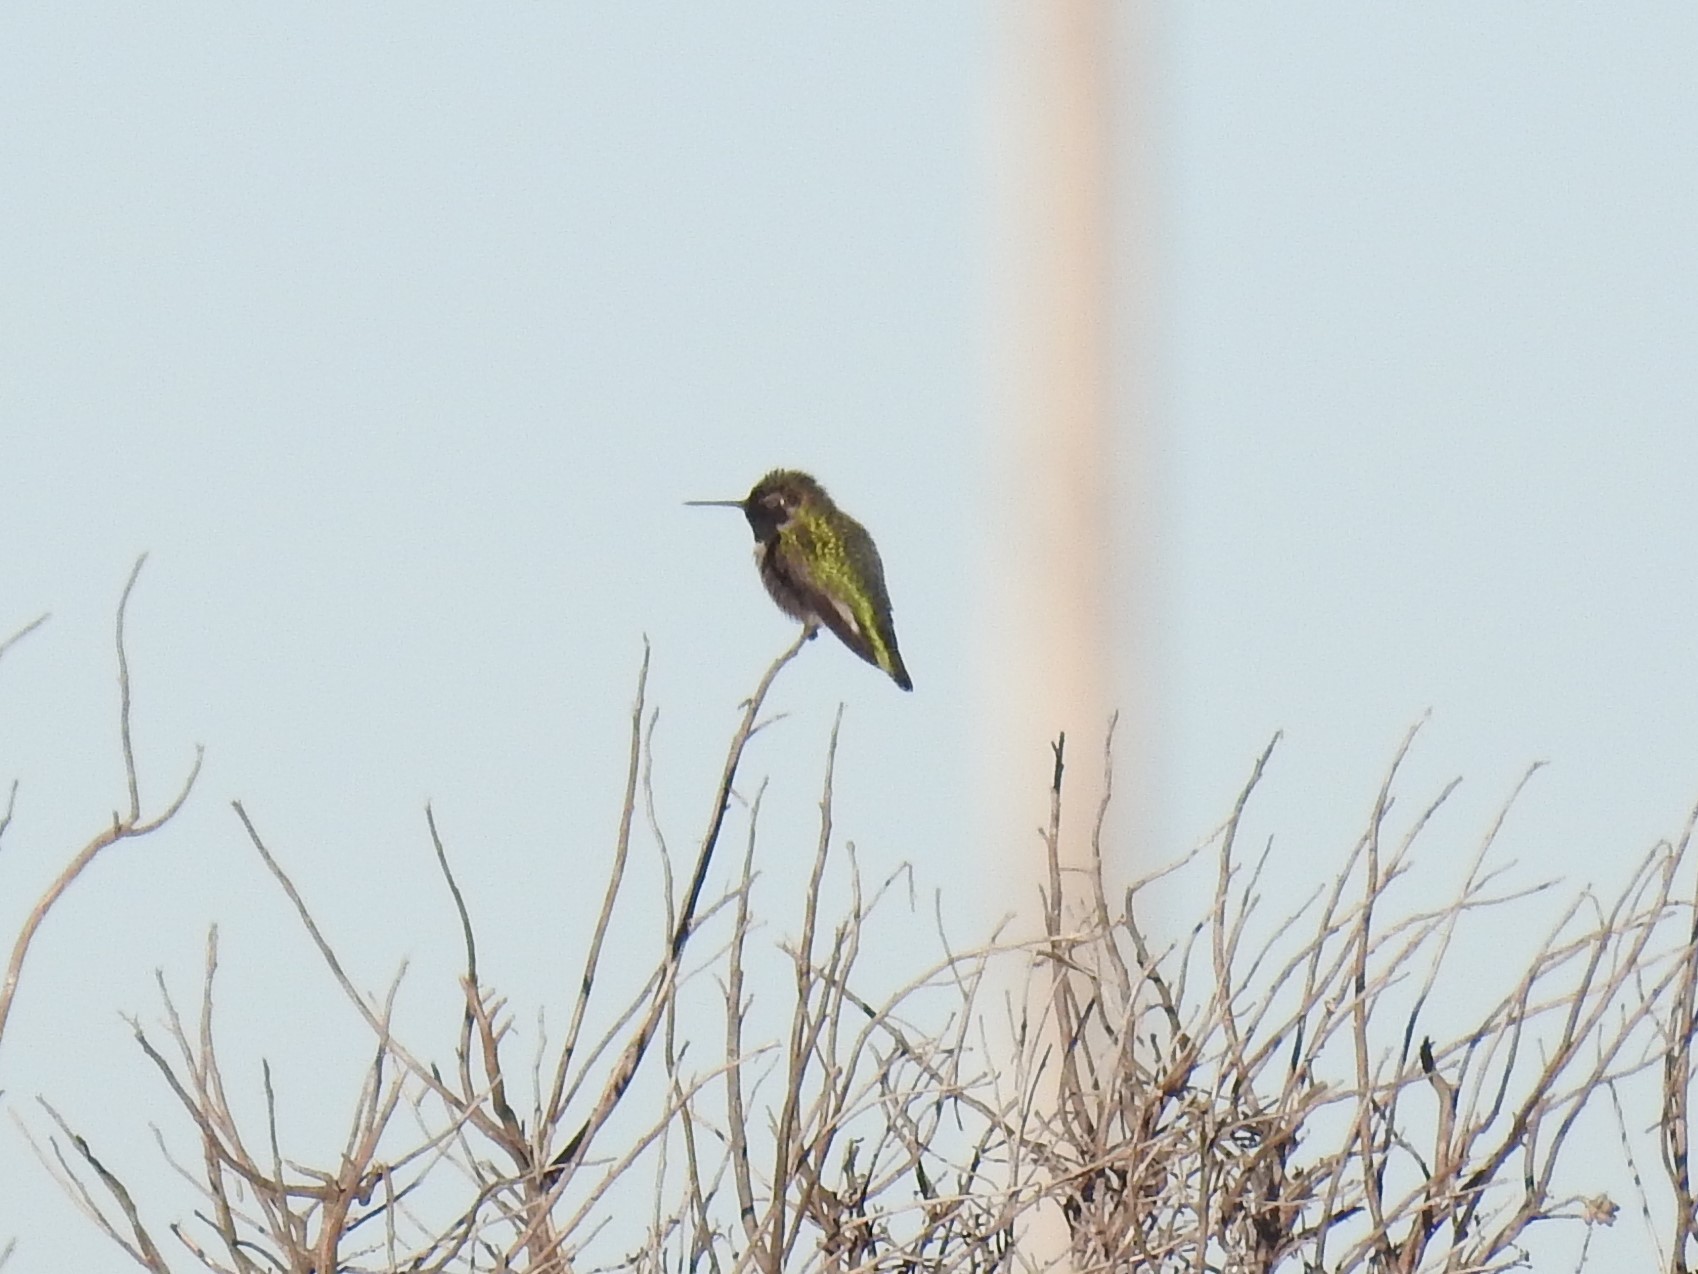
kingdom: Animalia
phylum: Chordata
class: Aves
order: Apodiformes
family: Trochilidae
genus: Calypte
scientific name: Calypte anna
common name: Anna's hummingbird
